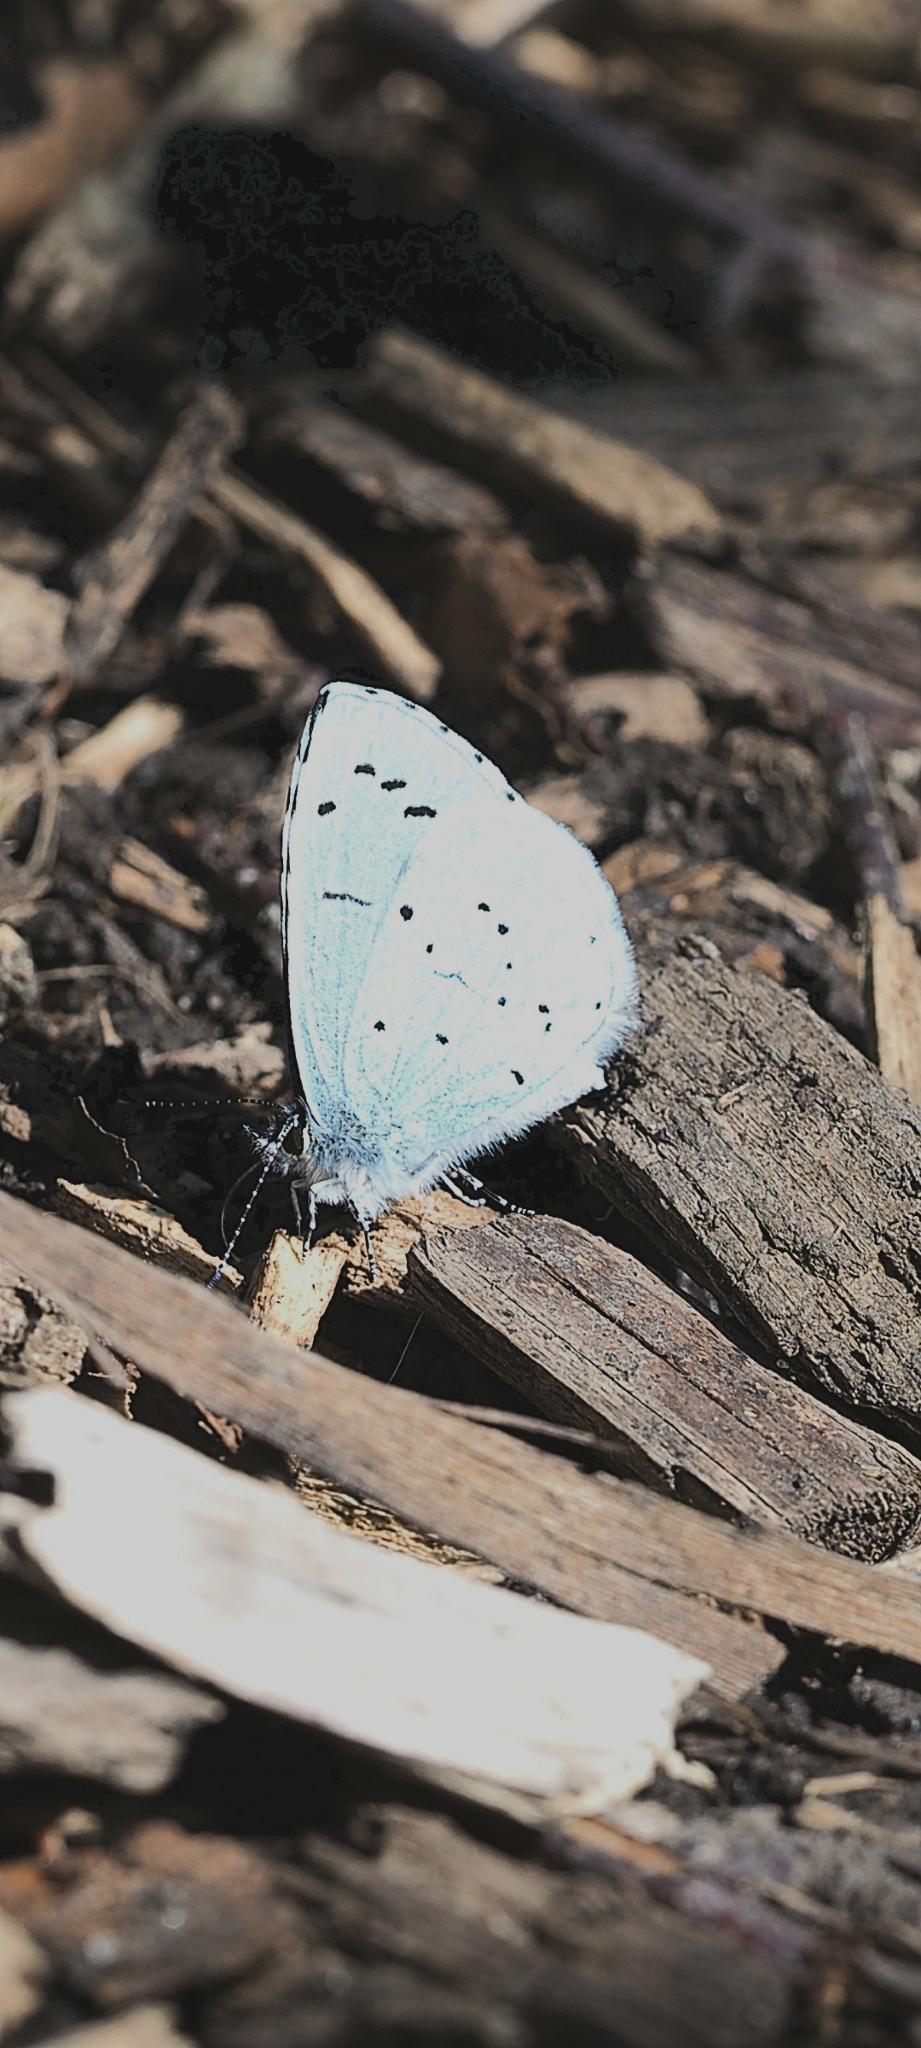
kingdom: Animalia
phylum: Arthropoda
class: Insecta
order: Lepidoptera
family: Lycaenidae
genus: Celastrina
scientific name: Celastrina argiolus
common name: Holly blue
